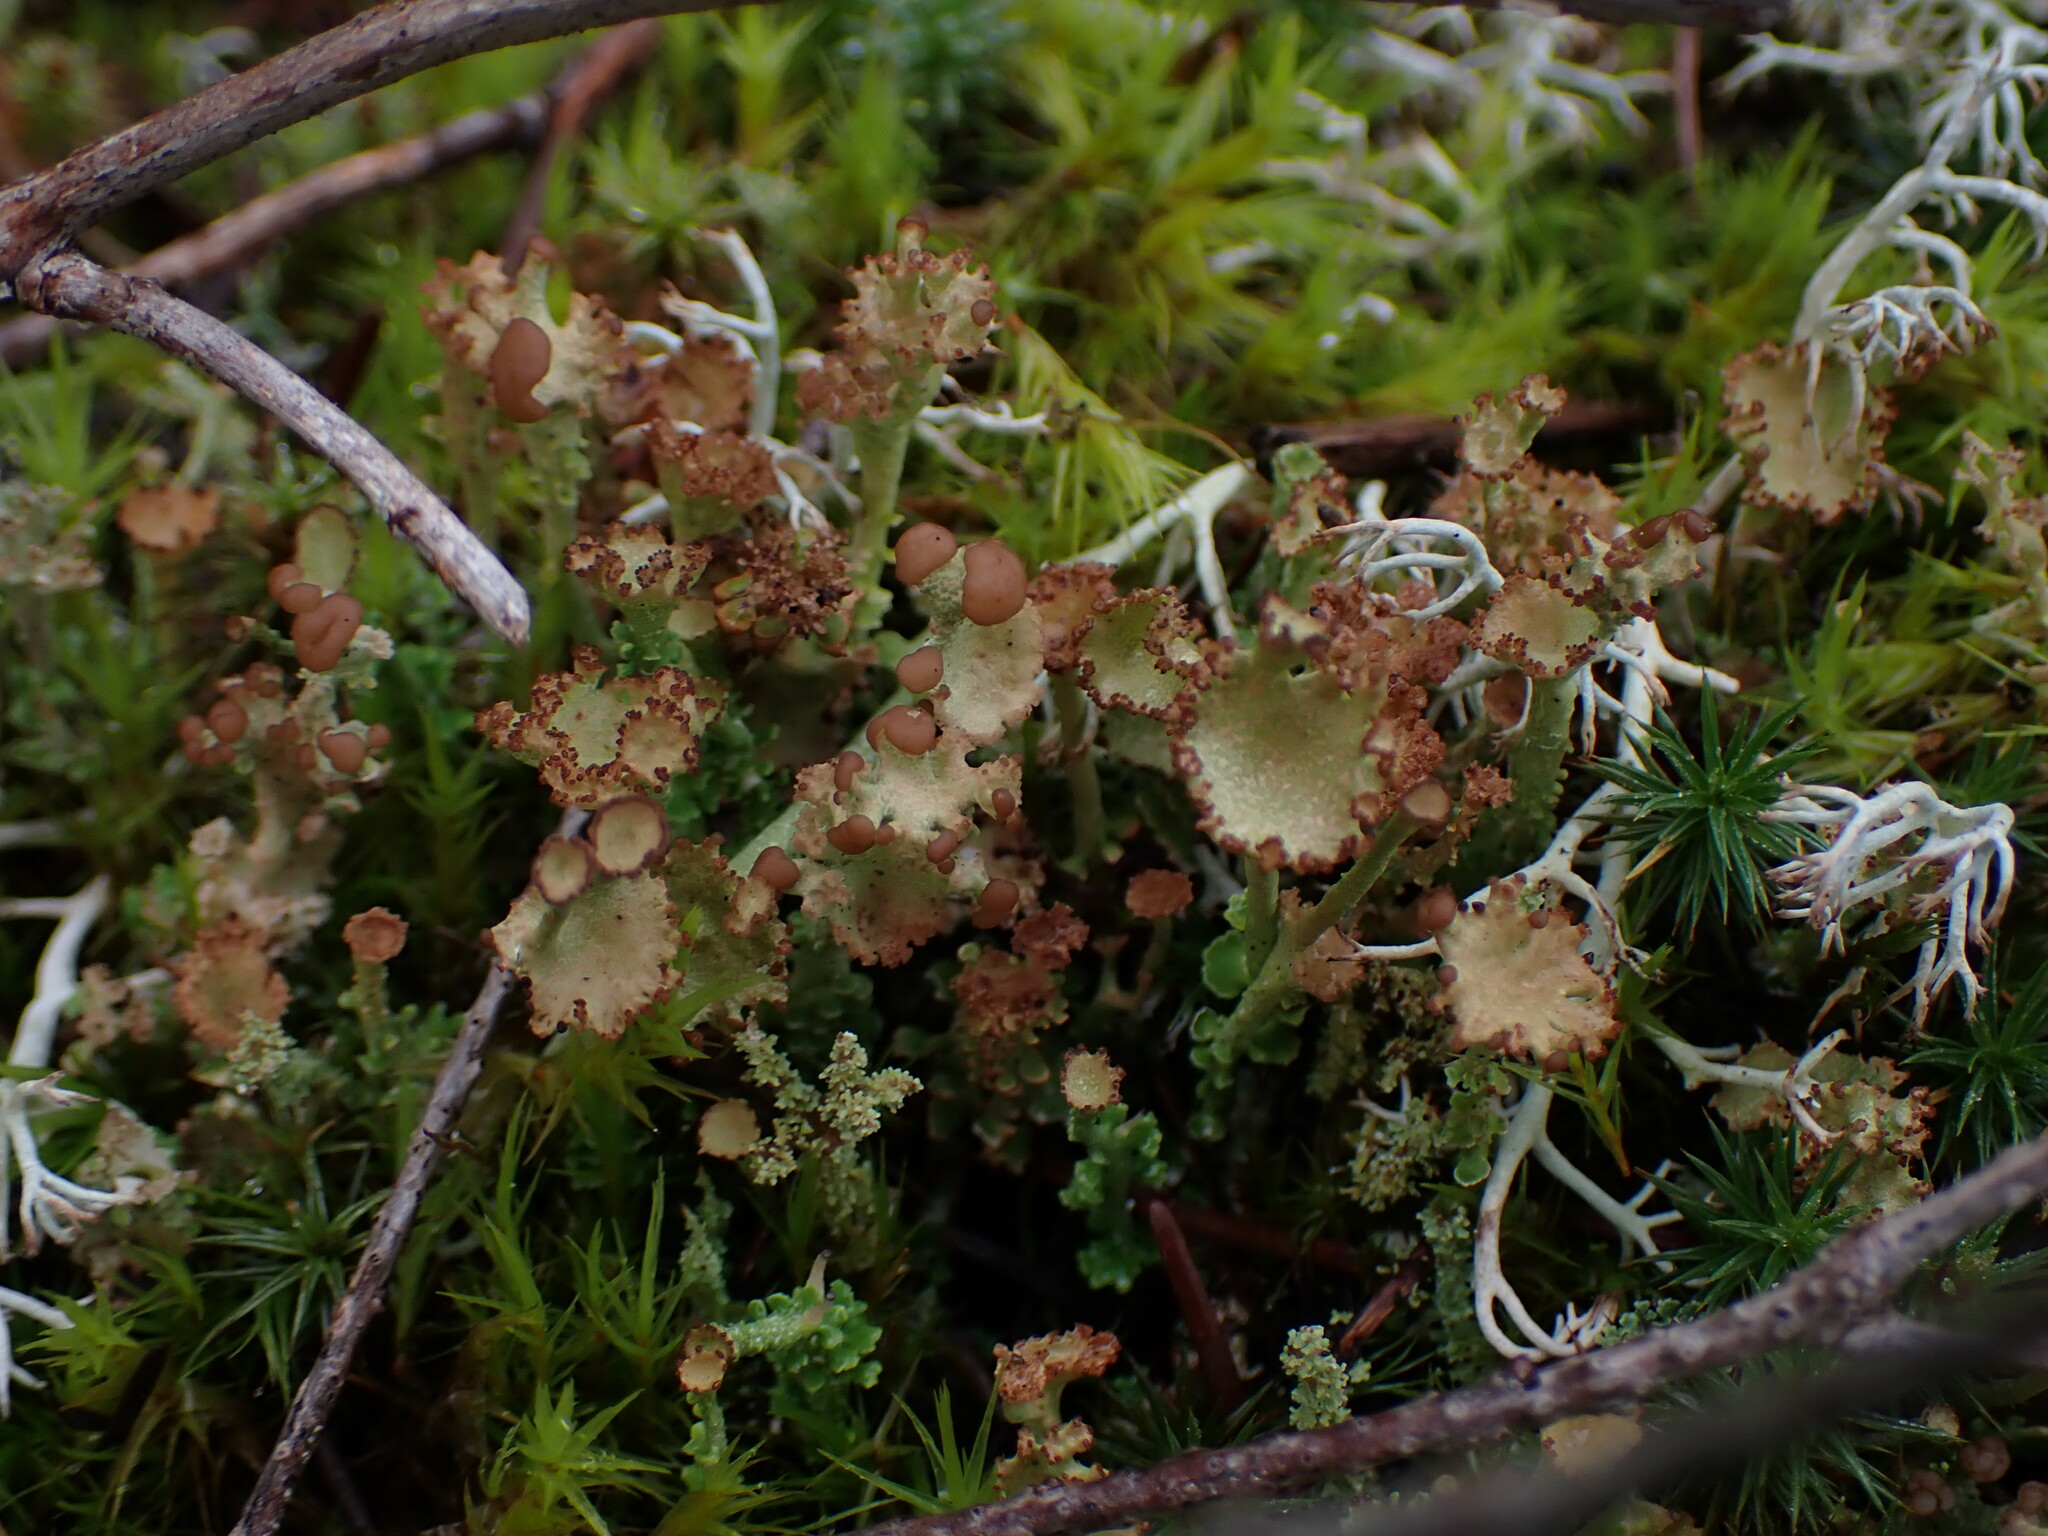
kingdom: Fungi
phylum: Ascomycota
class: Lecanoromycetes
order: Lecanorales
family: Cladoniaceae
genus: Cladonia
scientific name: Cladonia gracilis
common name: Smooth clad lichen
